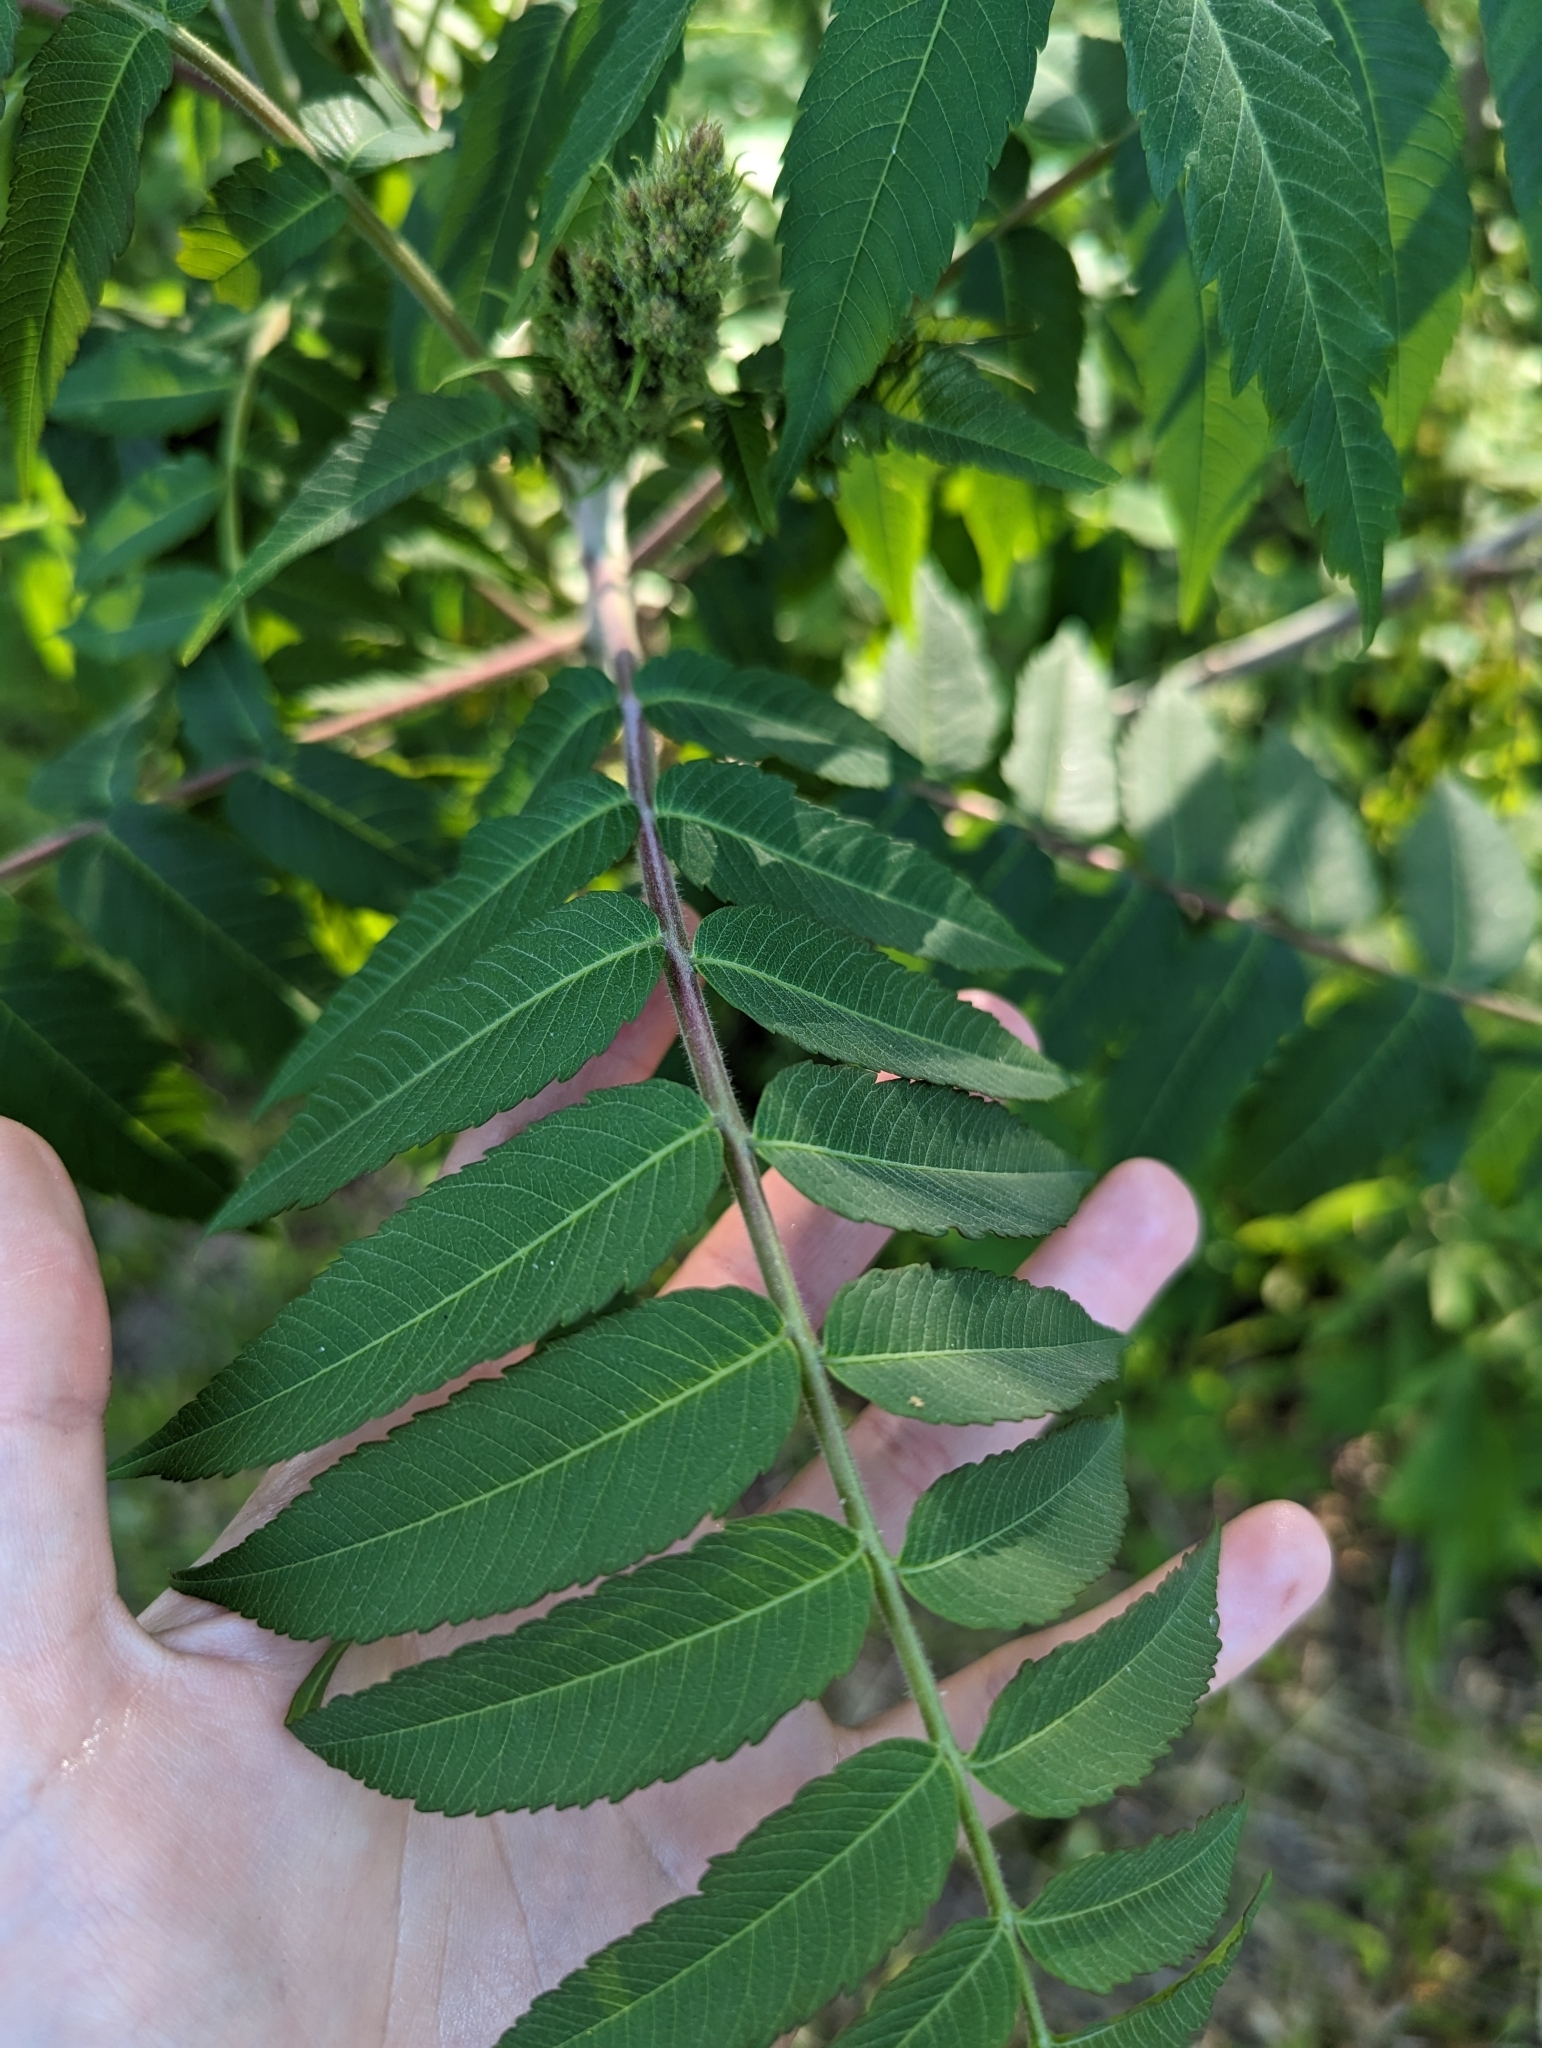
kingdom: Plantae
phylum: Tracheophyta
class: Magnoliopsida
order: Sapindales
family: Anacardiaceae
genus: Rhus
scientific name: Rhus typhina
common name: Staghorn sumac
